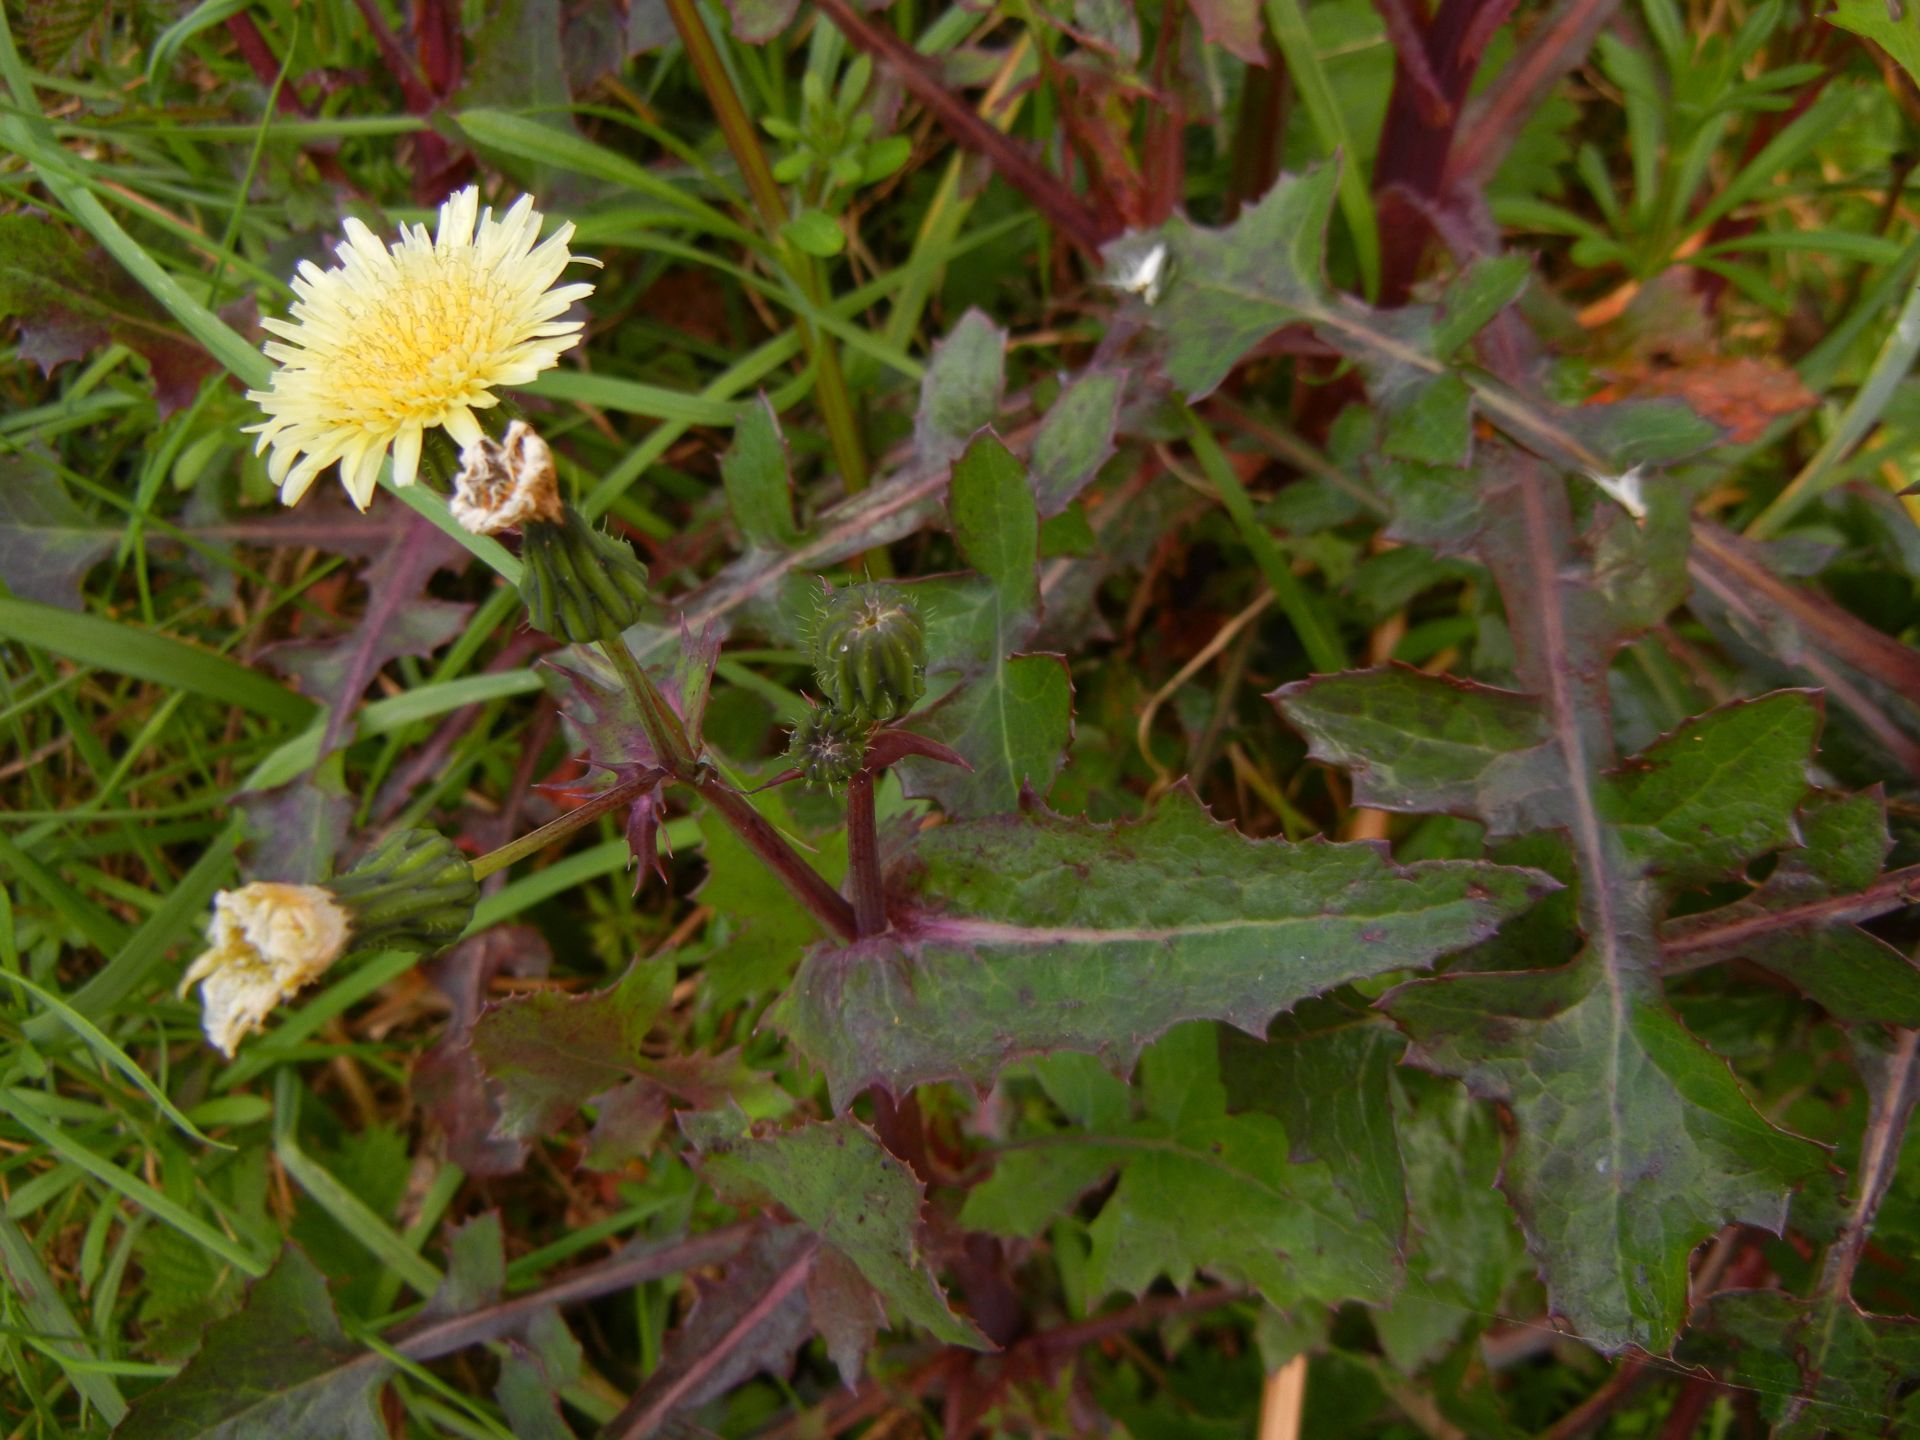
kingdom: Plantae
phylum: Tracheophyta
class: Magnoliopsida
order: Asterales
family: Asteraceae
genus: Sonchus
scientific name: Sonchus oleraceus
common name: Common sowthistle
